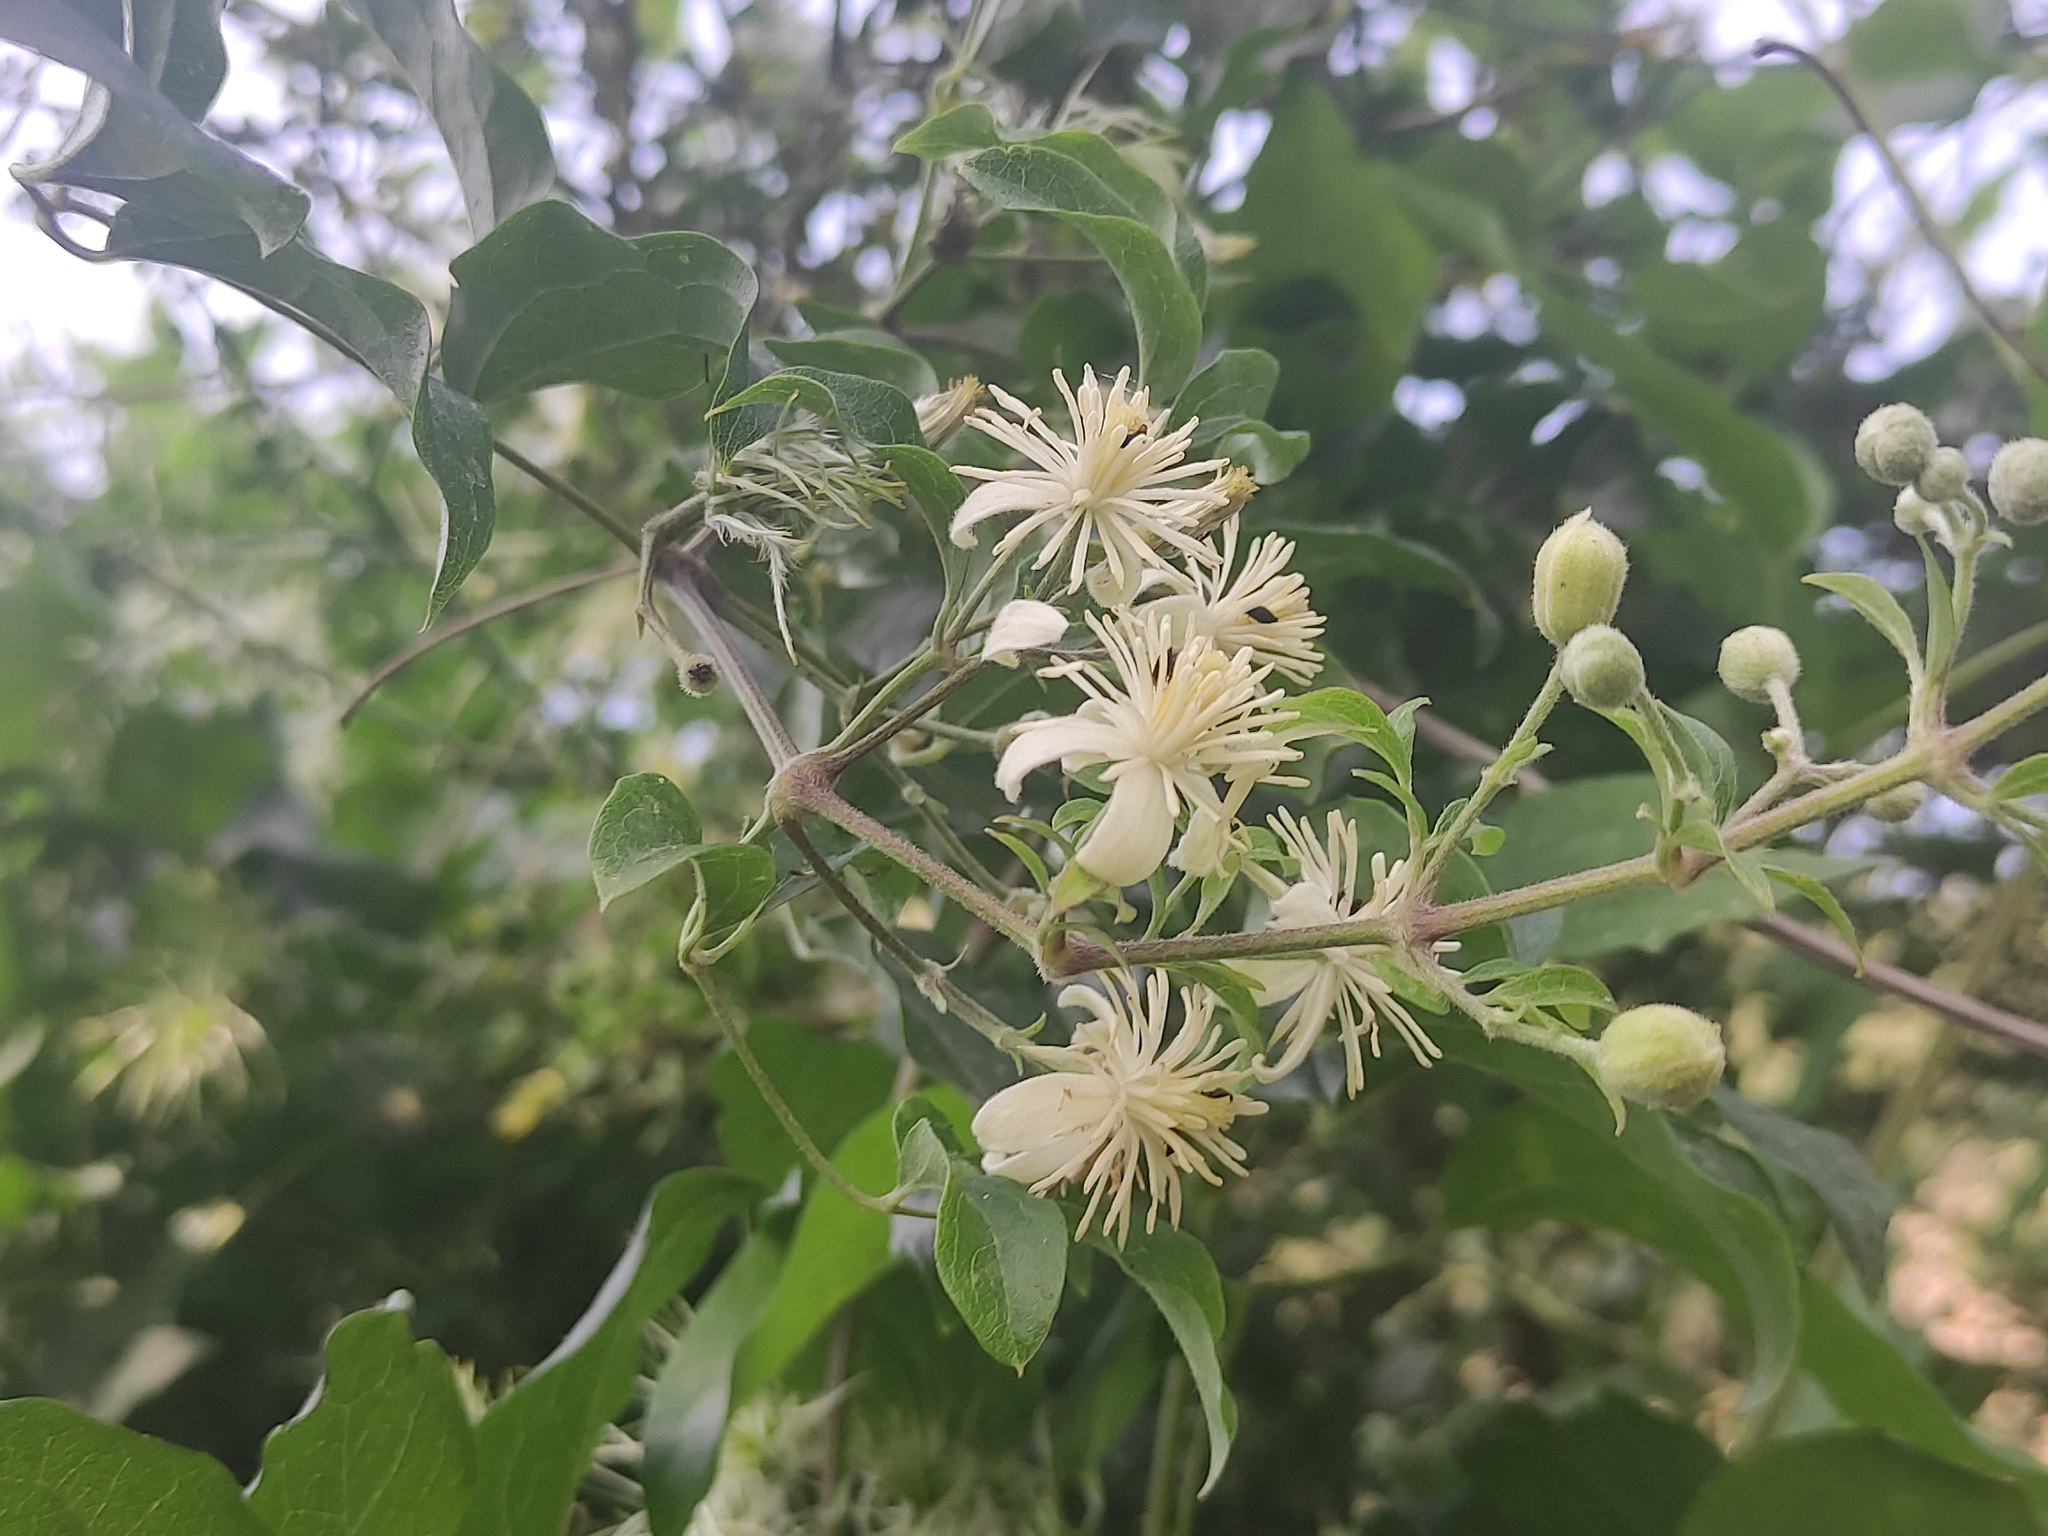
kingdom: Plantae
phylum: Tracheophyta
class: Magnoliopsida
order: Ranunculales
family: Ranunculaceae
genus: Clematis
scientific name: Clematis vitalba
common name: Evergreen clematis
